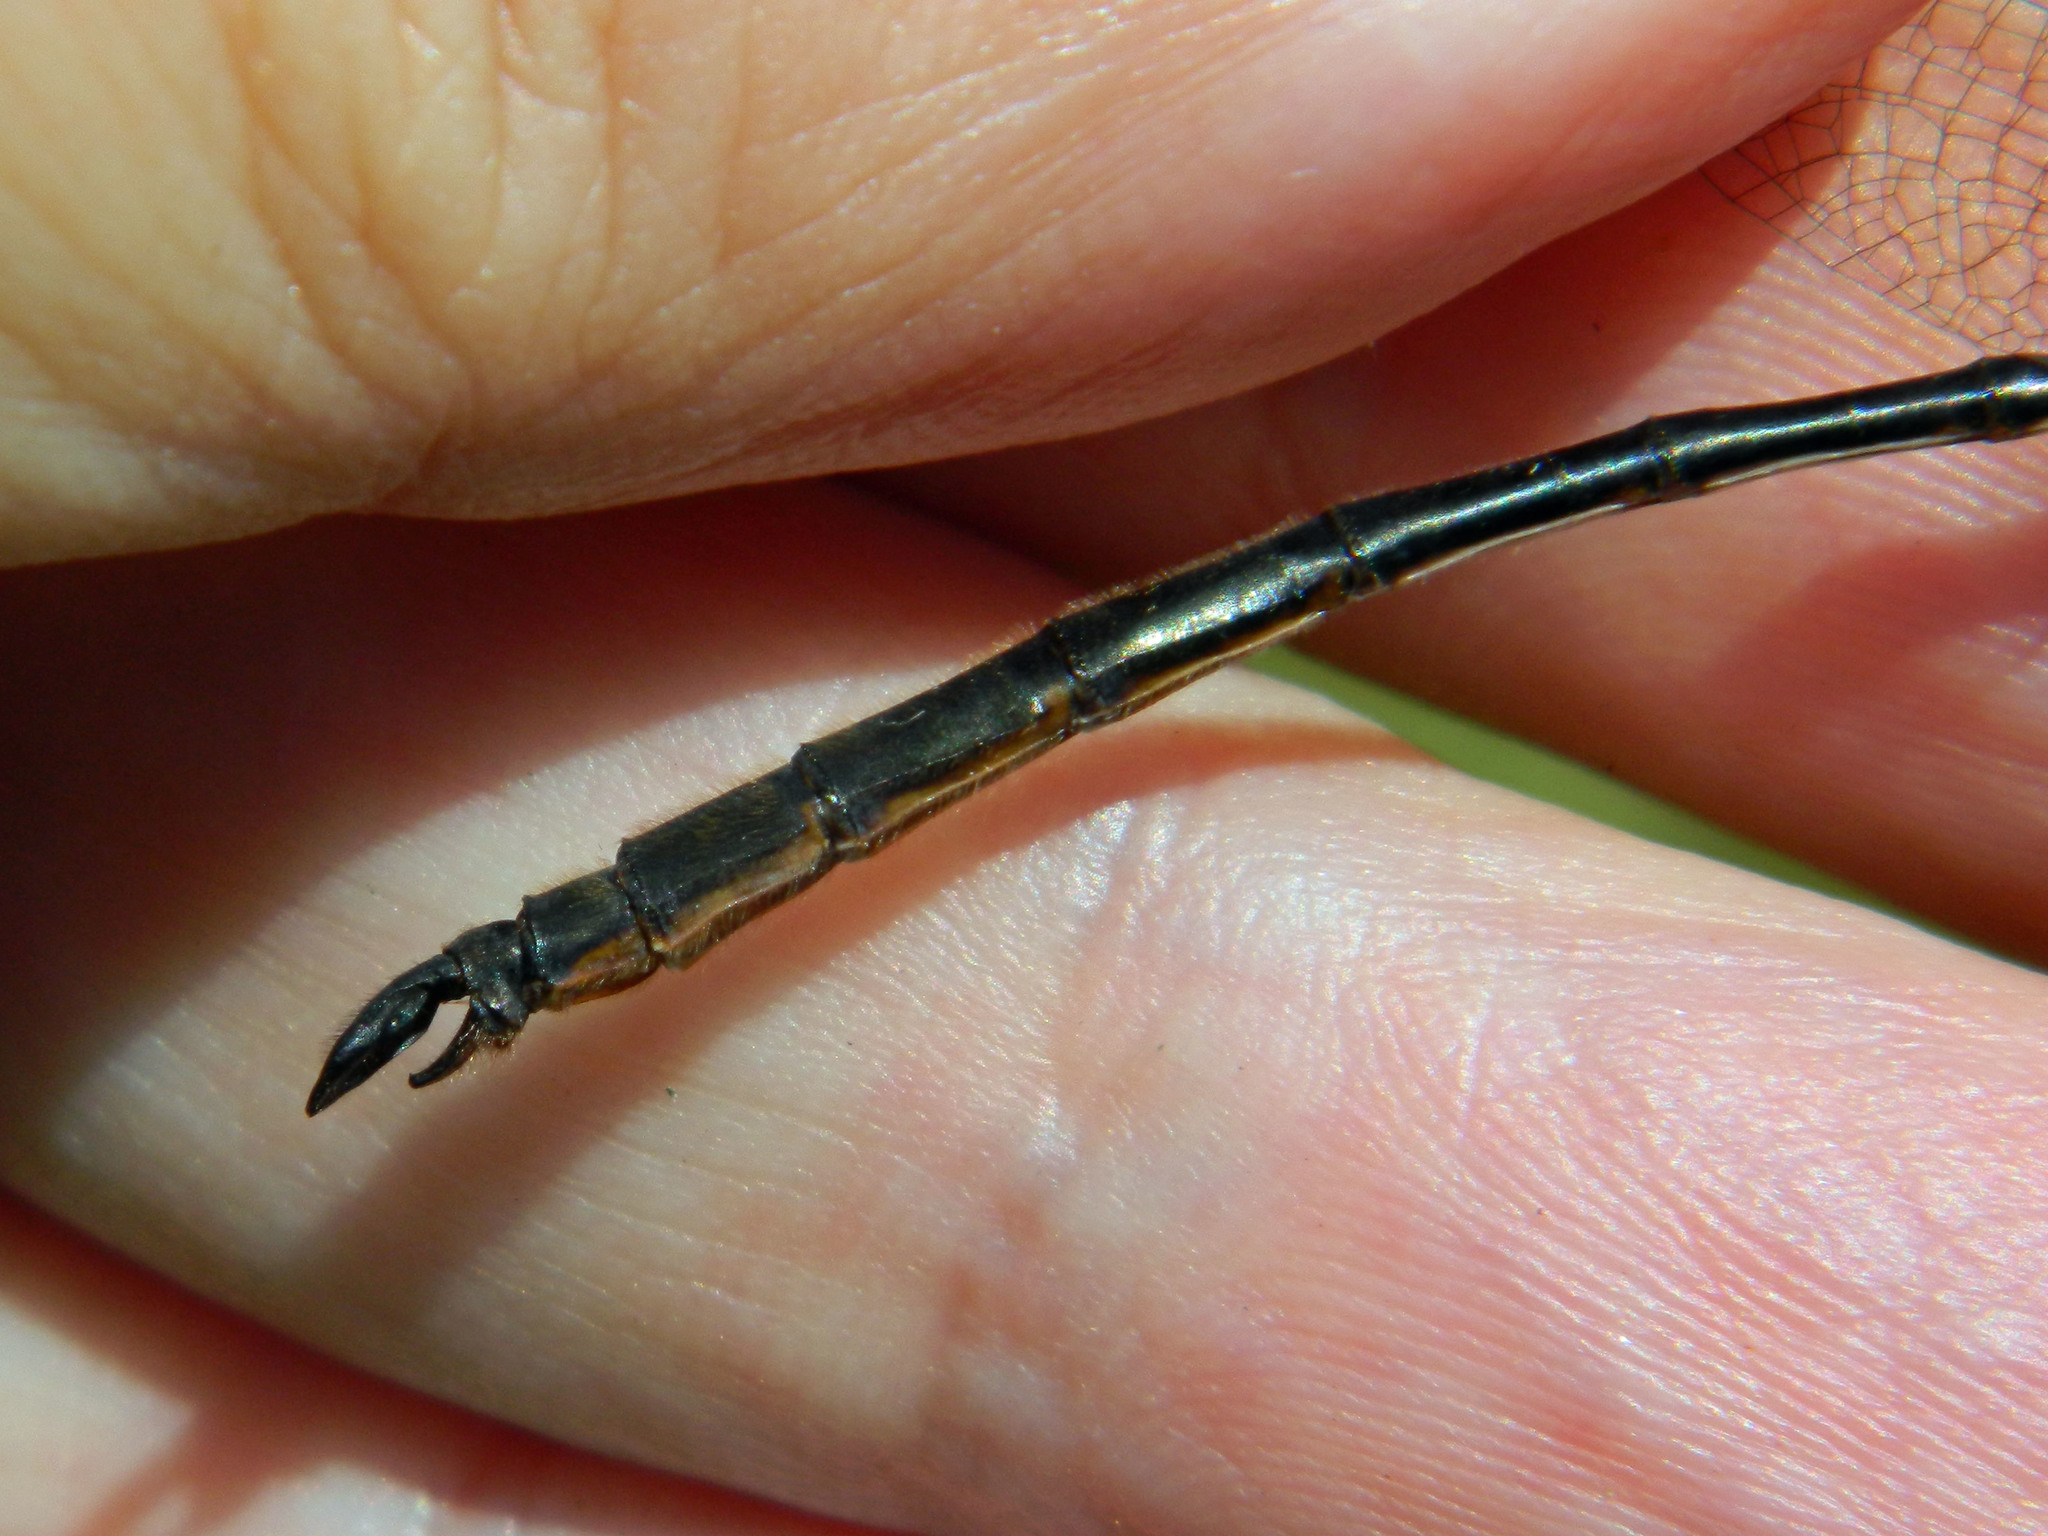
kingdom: Animalia
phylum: Arthropoda
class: Insecta
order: Odonata
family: Corduliidae
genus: Somatochlora
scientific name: Somatochlora franklini
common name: Delicate emerald
